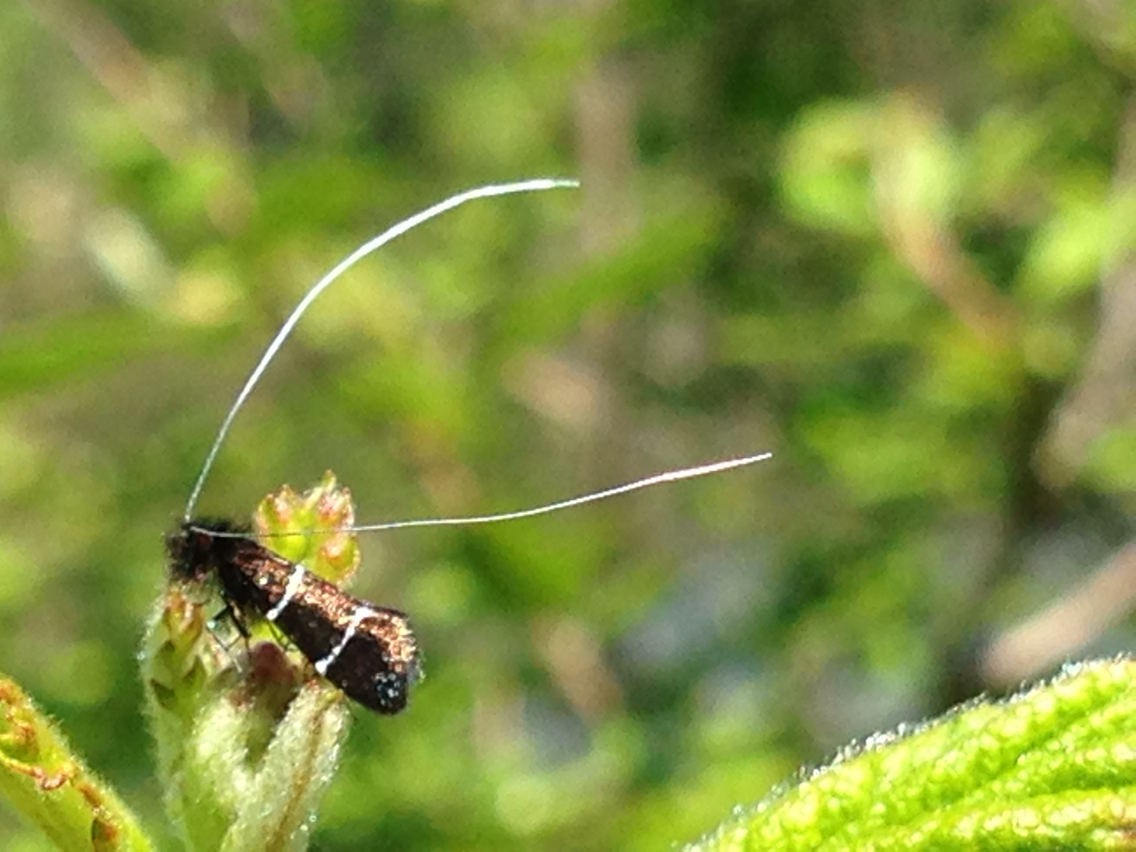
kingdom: Animalia
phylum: Arthropoda
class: Insecta
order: Lepidoptera
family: Adelidae
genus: Adela
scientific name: Adela septentrionella
